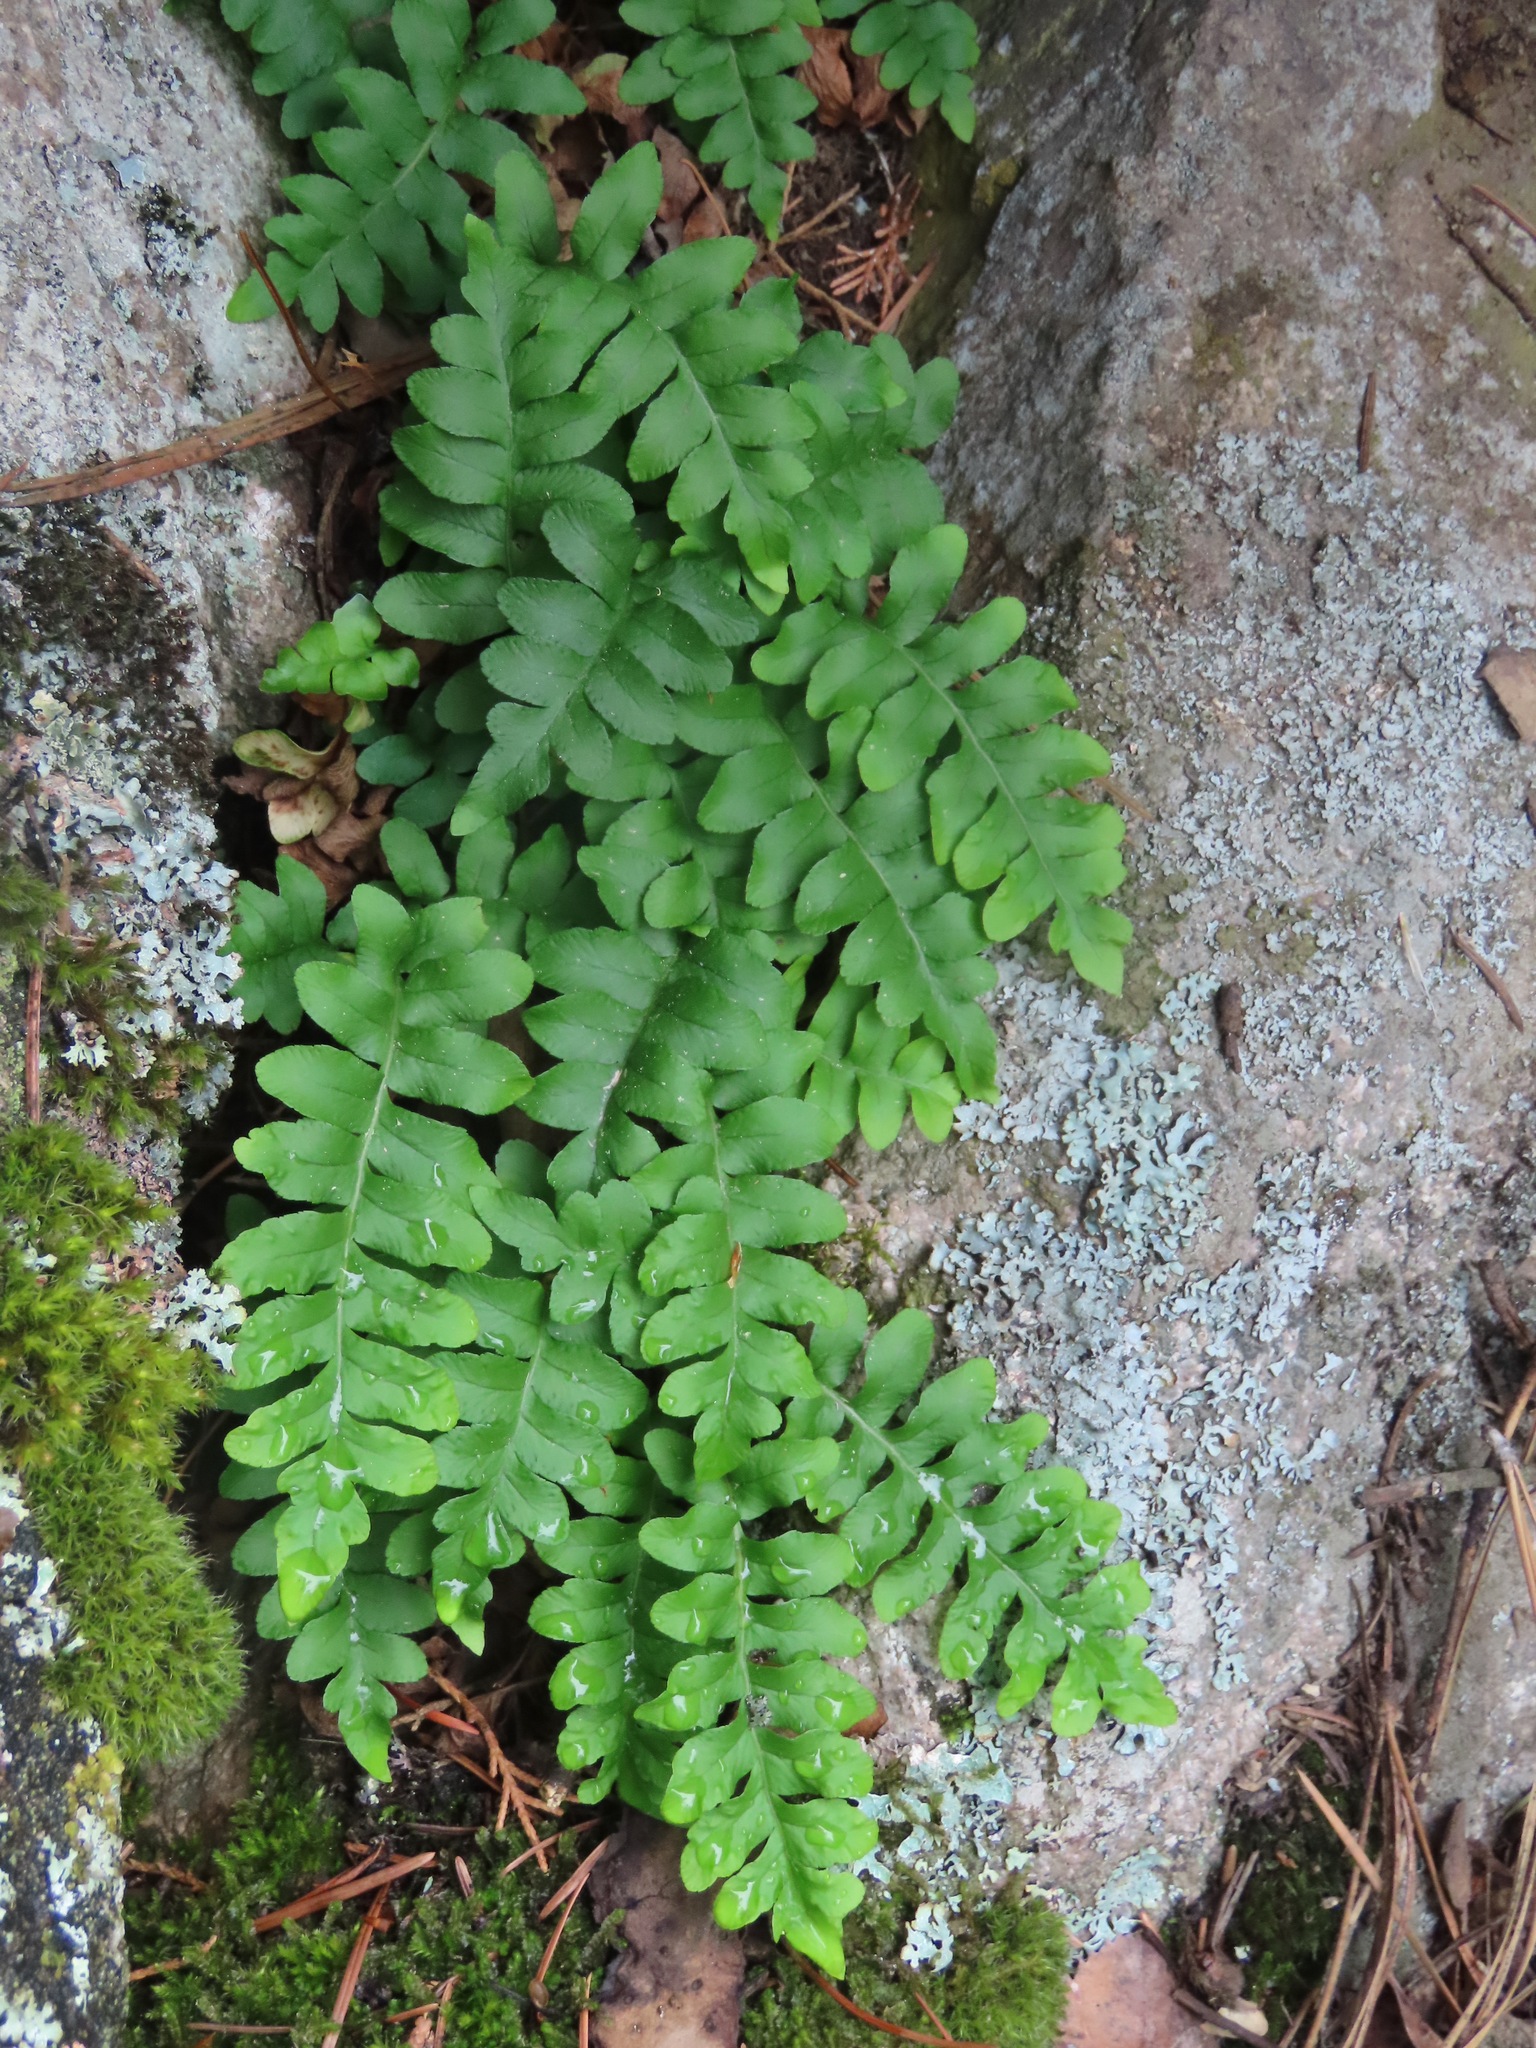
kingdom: Plantae
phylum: Tracheophyta
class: Polypodiopsida
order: Polypodiales
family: Polypodiaceae
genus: Polypodium
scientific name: Polypodium hesperium
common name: Western polypody
